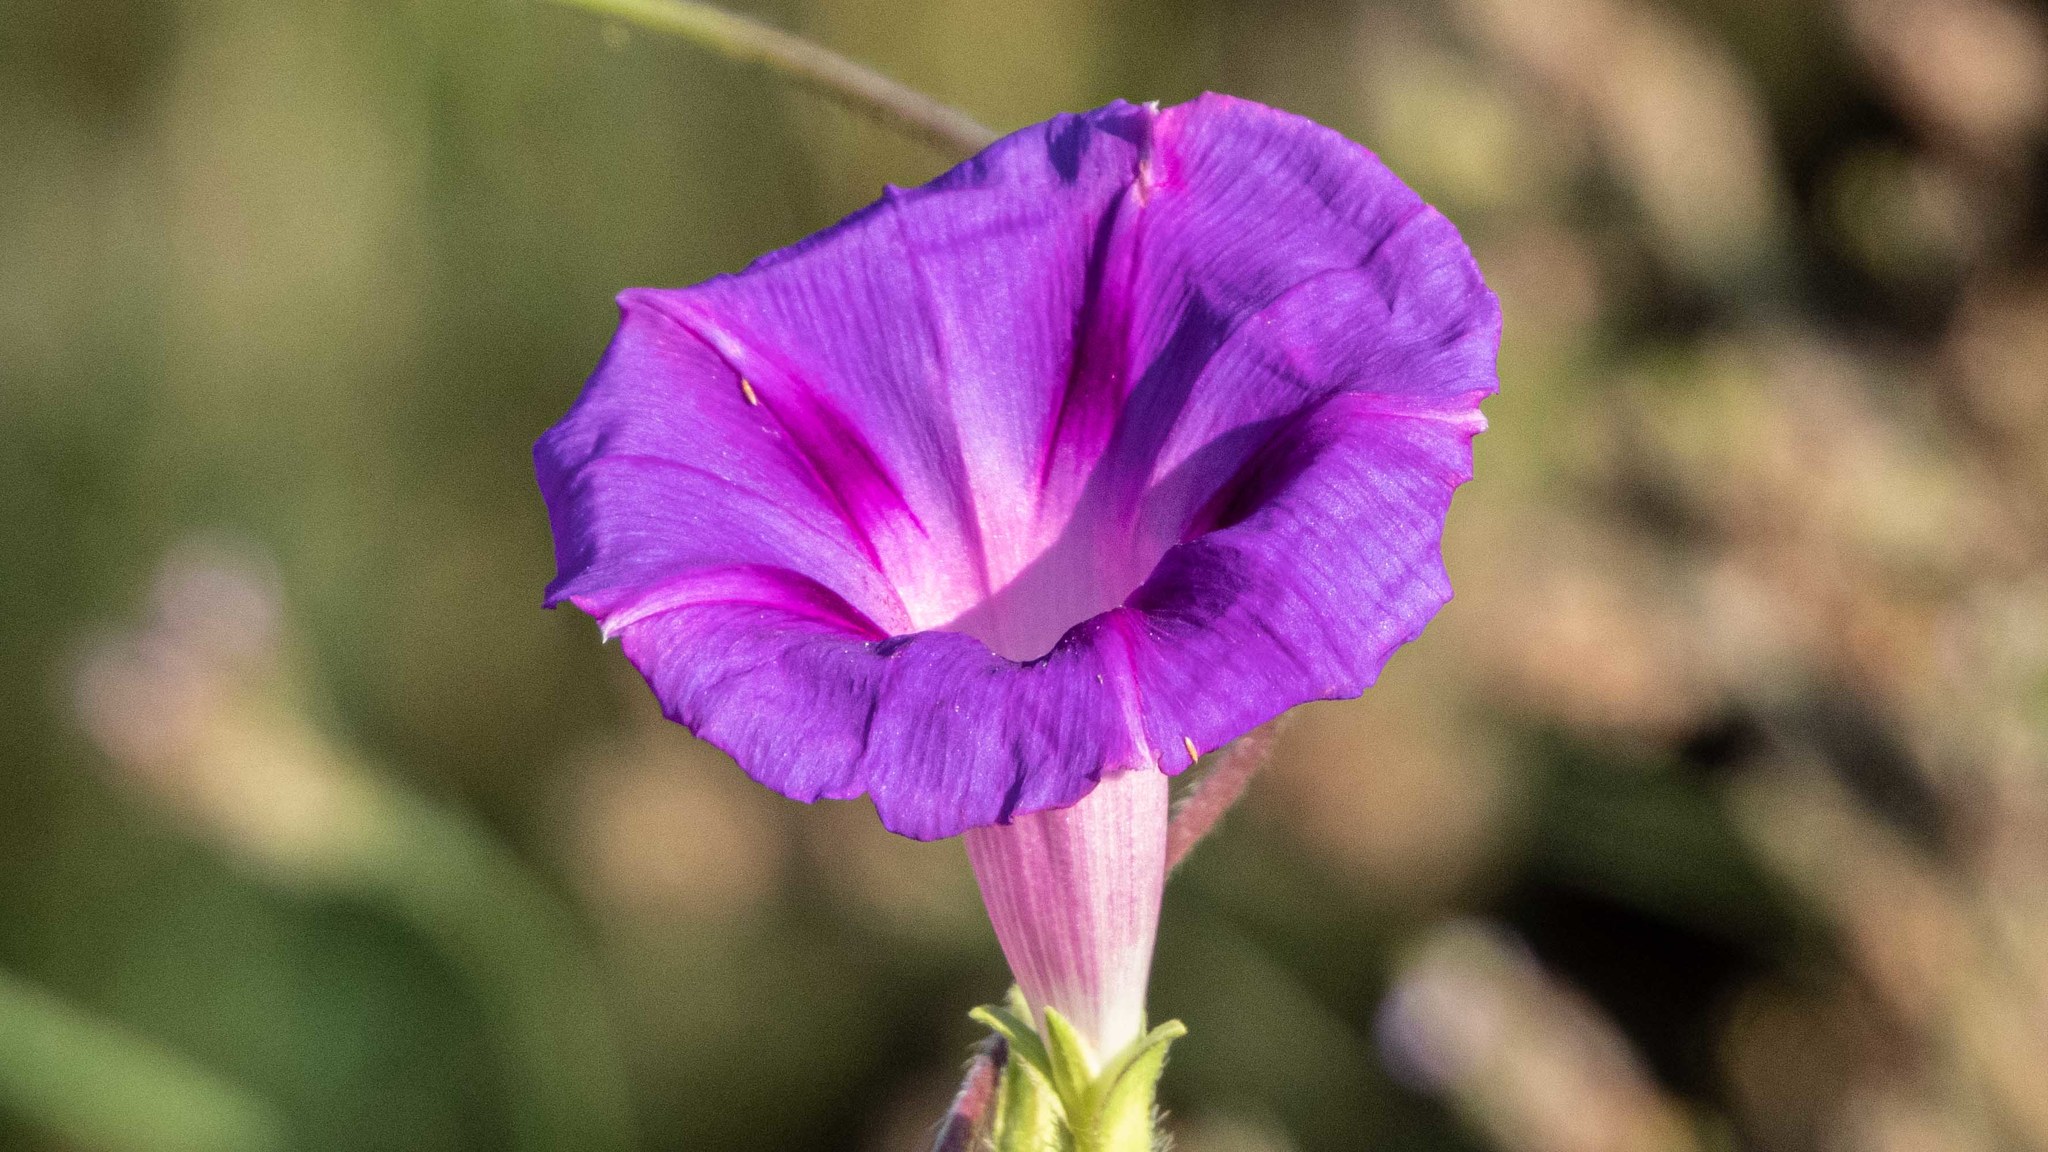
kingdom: Plantae
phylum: Tracheophyta
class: Magnoliopsida
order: Solanales
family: Convolvulaceae
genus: Ipomoea
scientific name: Ipomoea purpurea
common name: Common morning-glory
